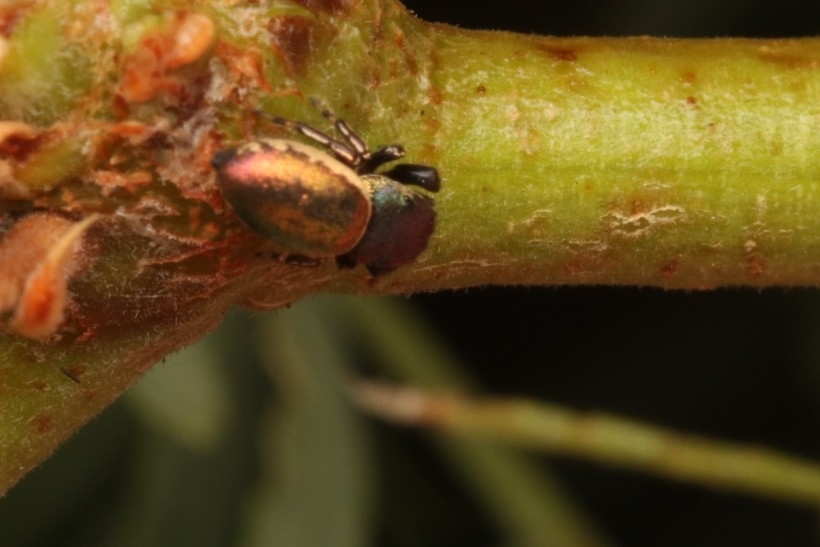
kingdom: Animalia
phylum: Arthropoda
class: Arachnida
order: Araneae
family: Salticidae
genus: Sassacus
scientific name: Sassacus papenhoei
